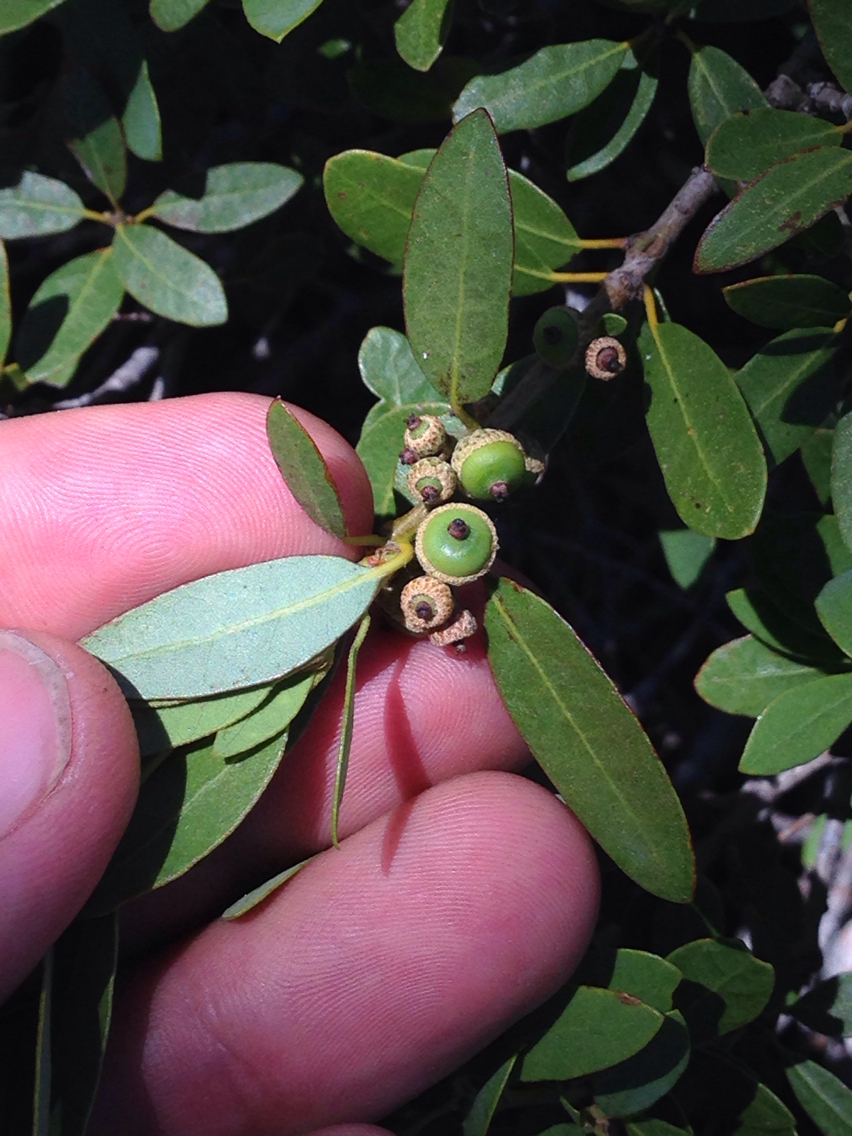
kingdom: Plantae
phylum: Tracheophyta
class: Magnoliopsida
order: Fagales
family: Fagaceae
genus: Quercus
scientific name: Quercus vacciniifolia
